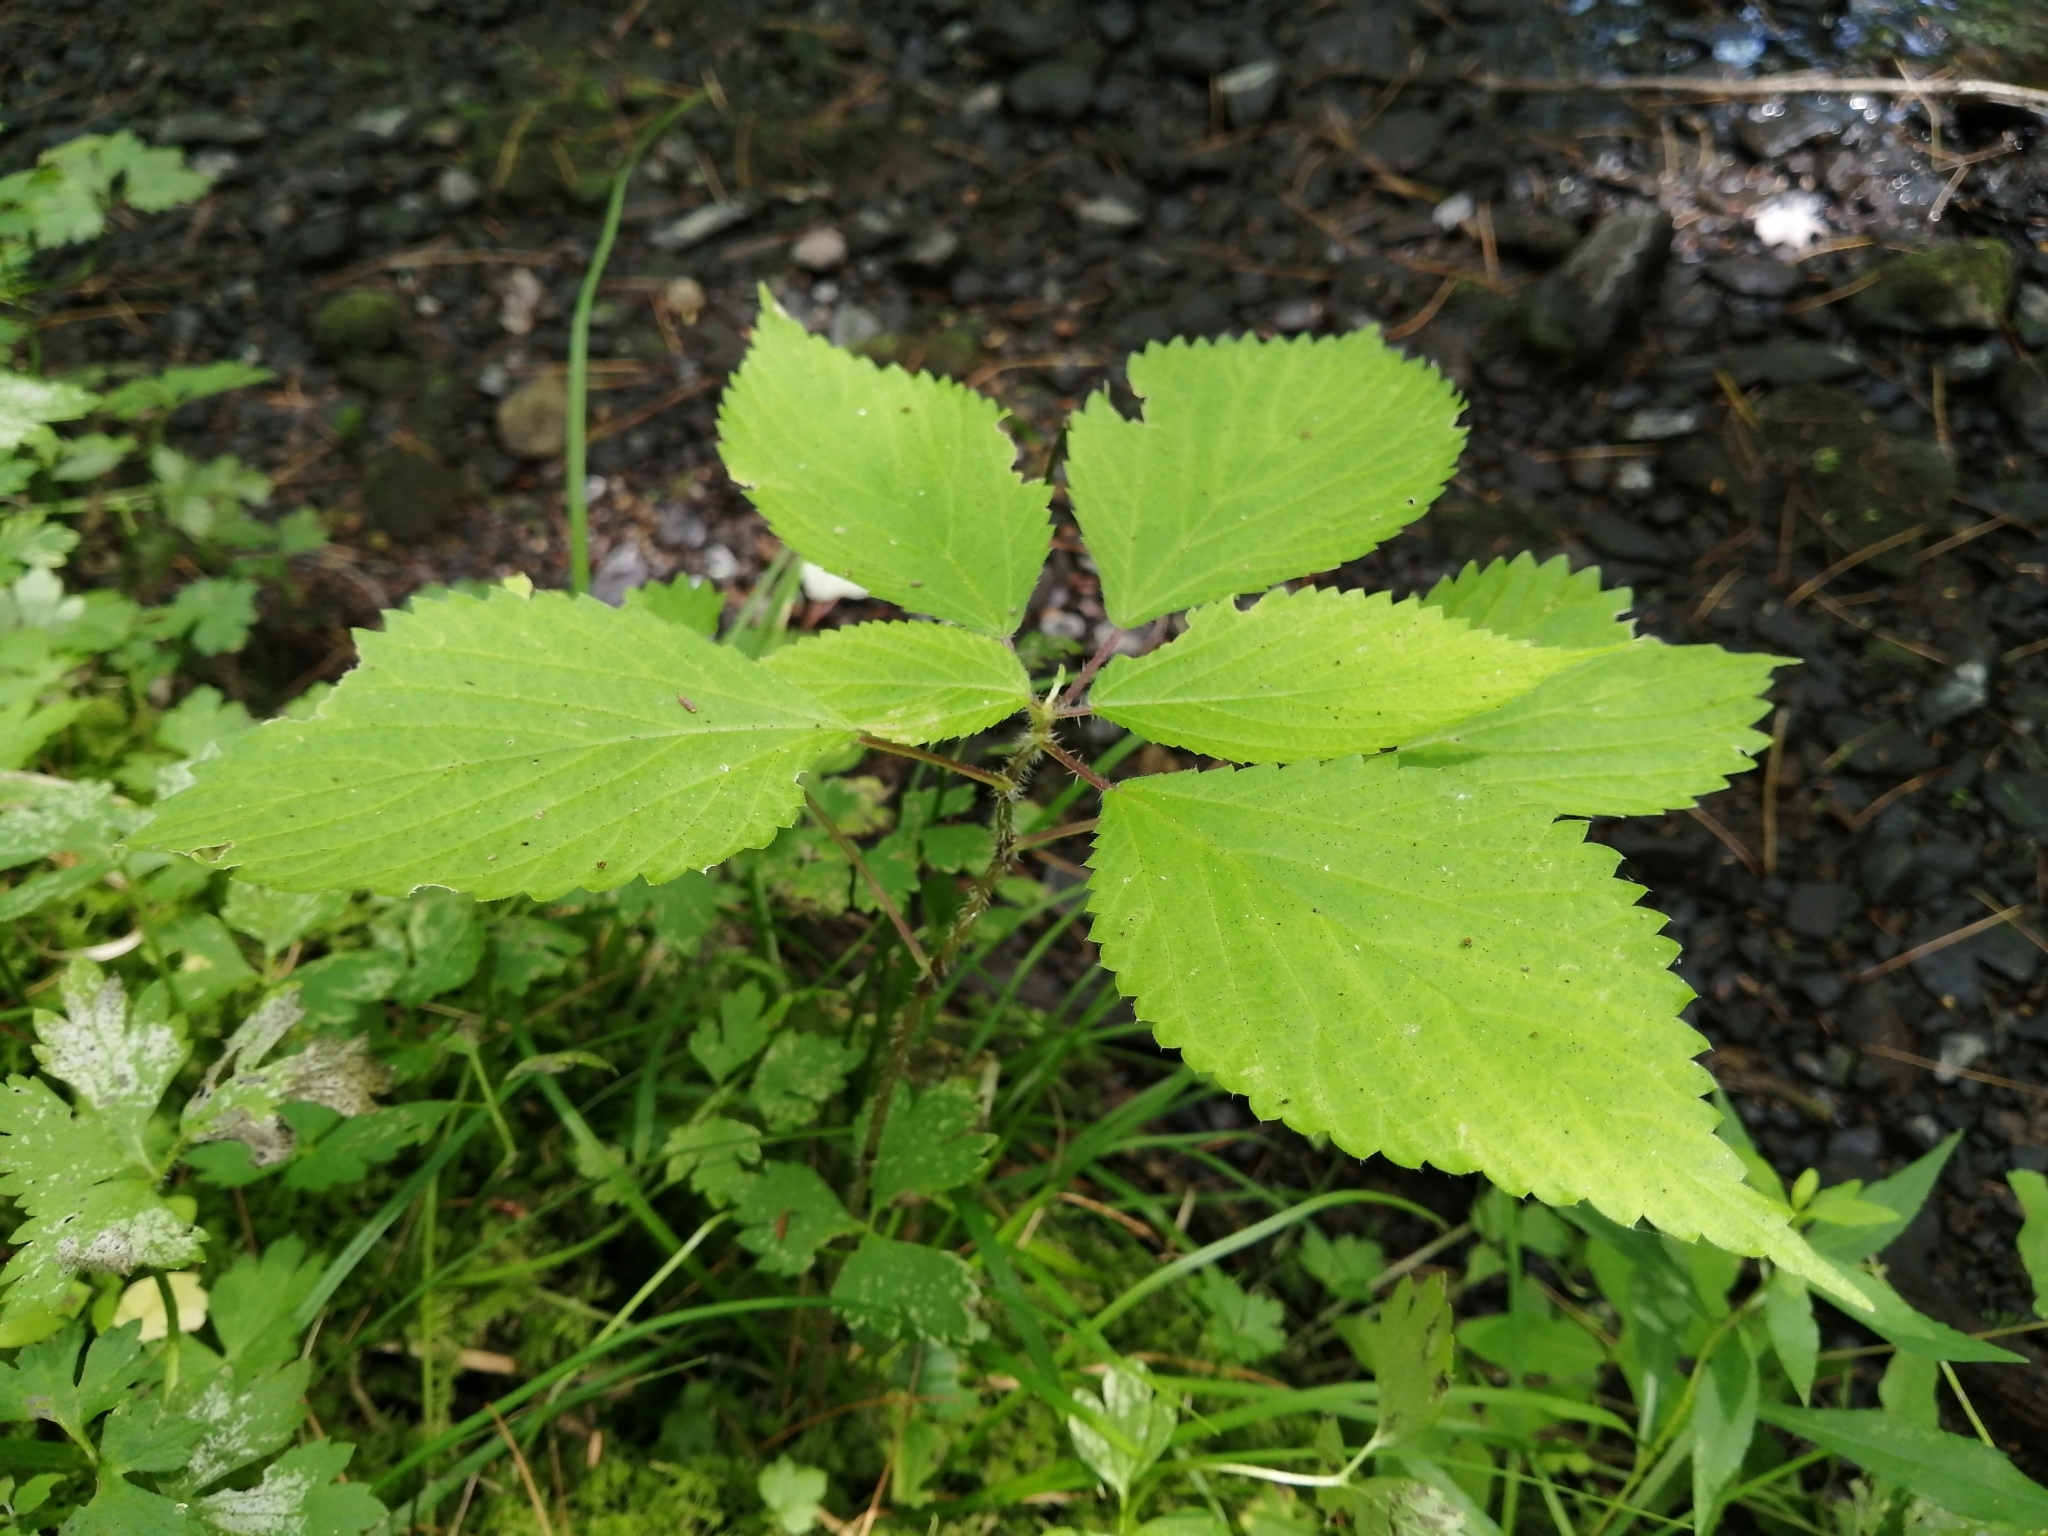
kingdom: Plantae
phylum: Tracheophyta
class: Magnoliopsida
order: Rosales
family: Urticaceae
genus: Laportea
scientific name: Laportea canadensis
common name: Canada nettle
